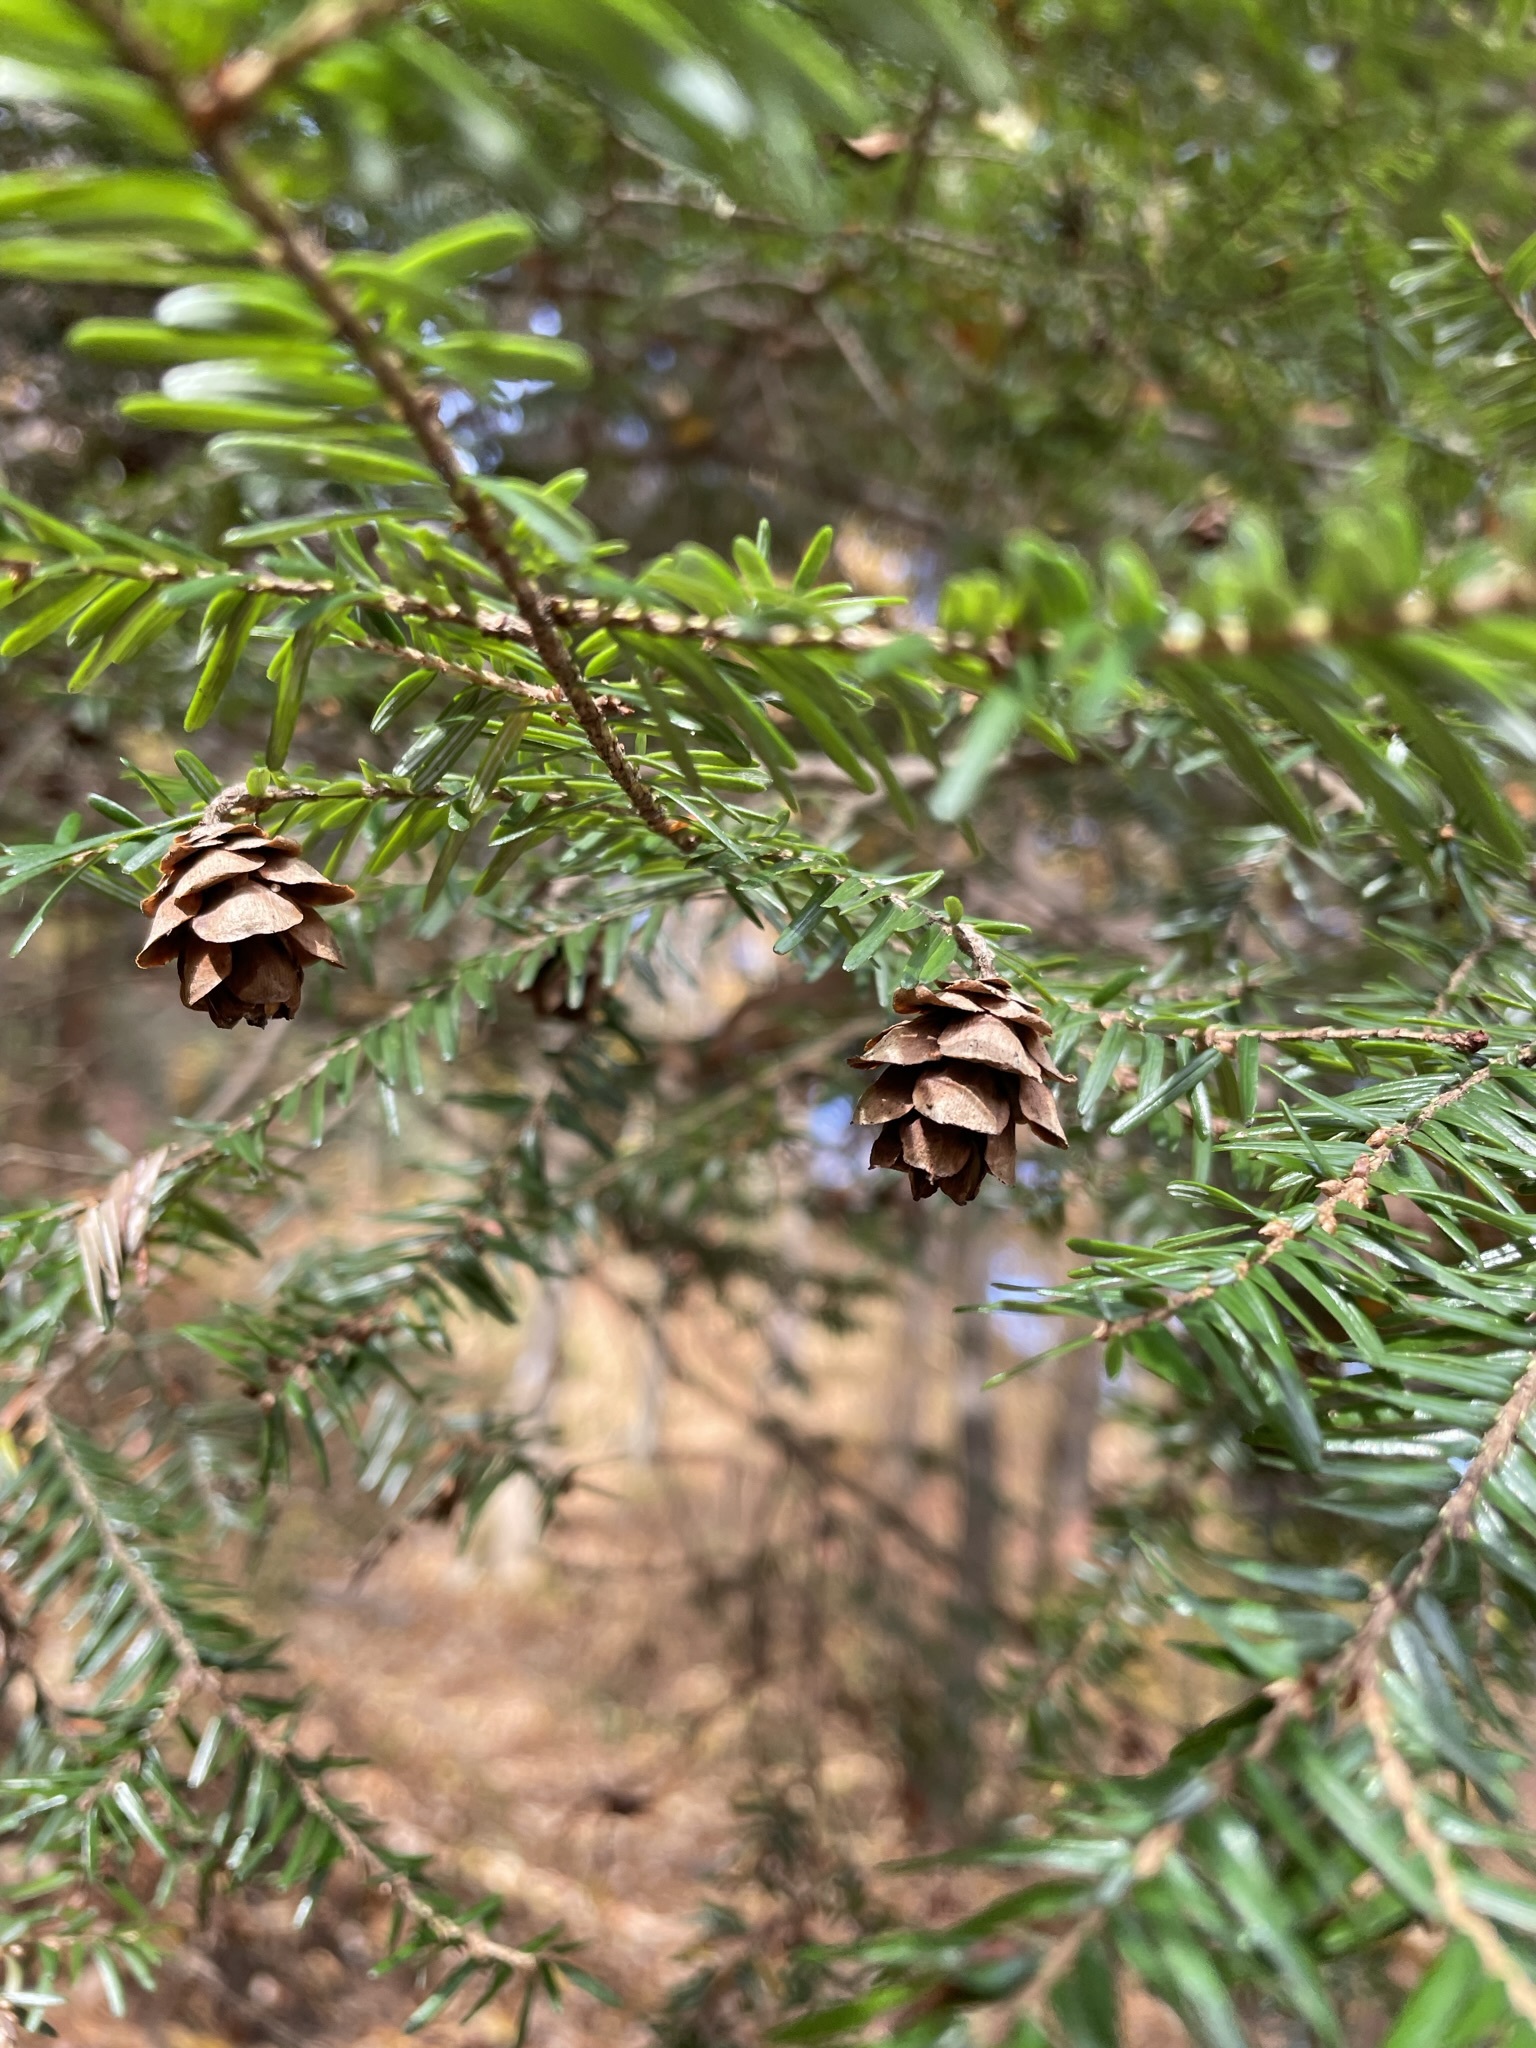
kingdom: Plantae
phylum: Tracheophyta
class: Pinopsida
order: Pinales
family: Pinaceae
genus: Tsuga
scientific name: Tsuga canadensis
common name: Eastern hemlock
